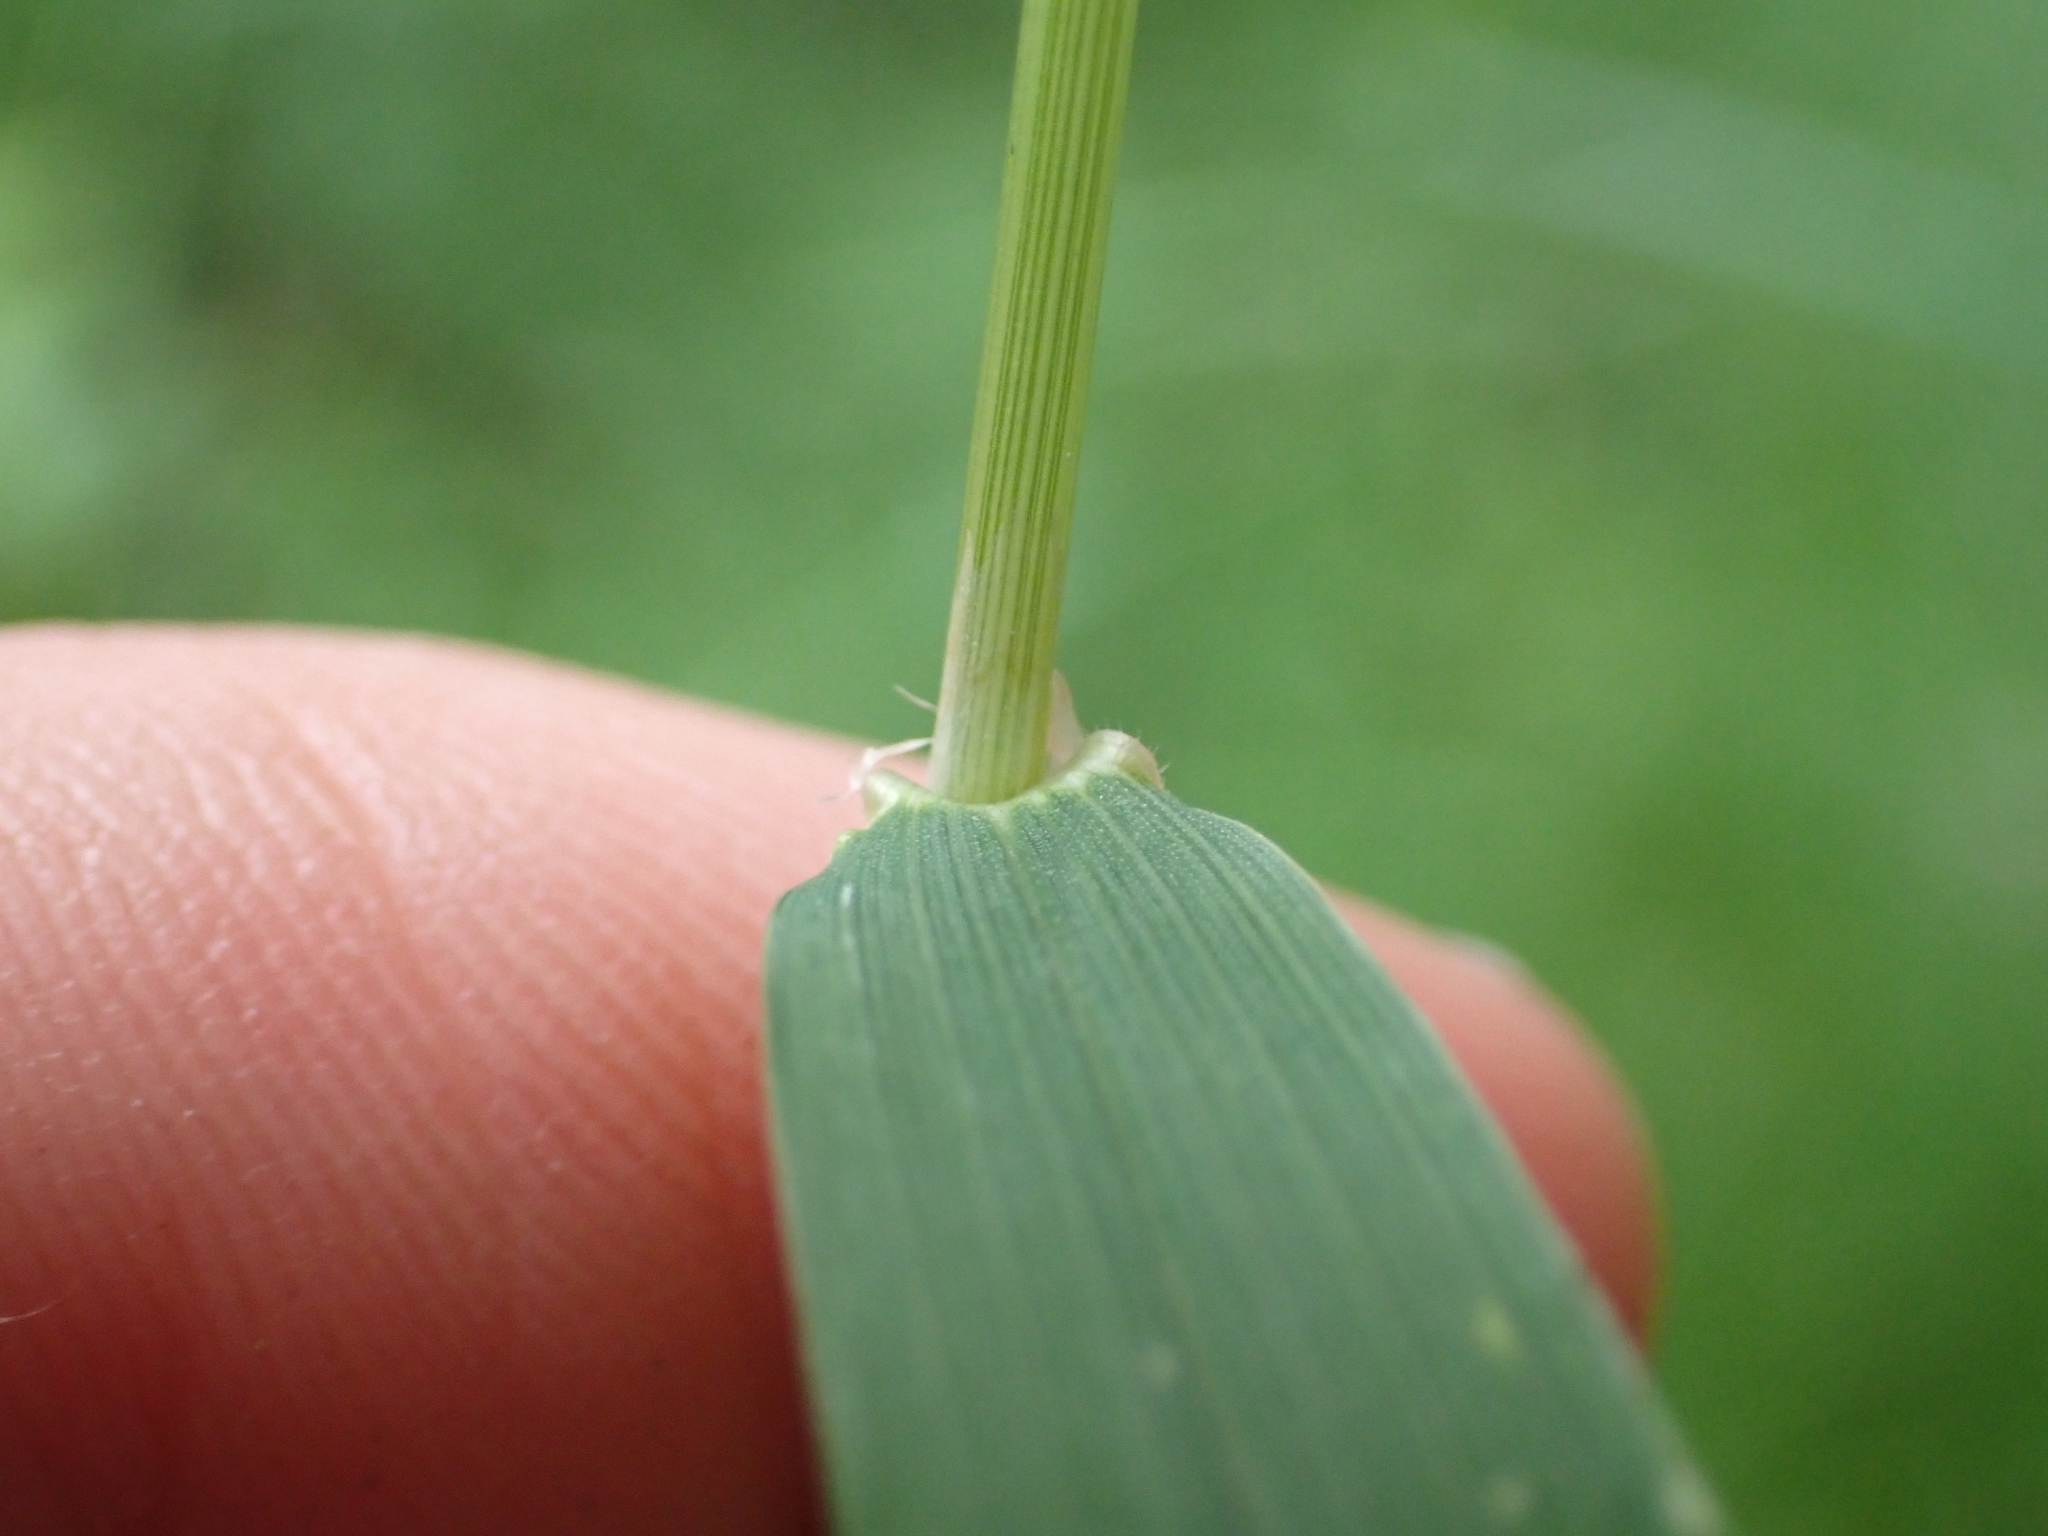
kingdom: Plantae
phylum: Tracheophyta
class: Liliopsida
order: Poales
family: Poaceae
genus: Cinna
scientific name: Cinna latifolia
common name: Drooping woodreed
